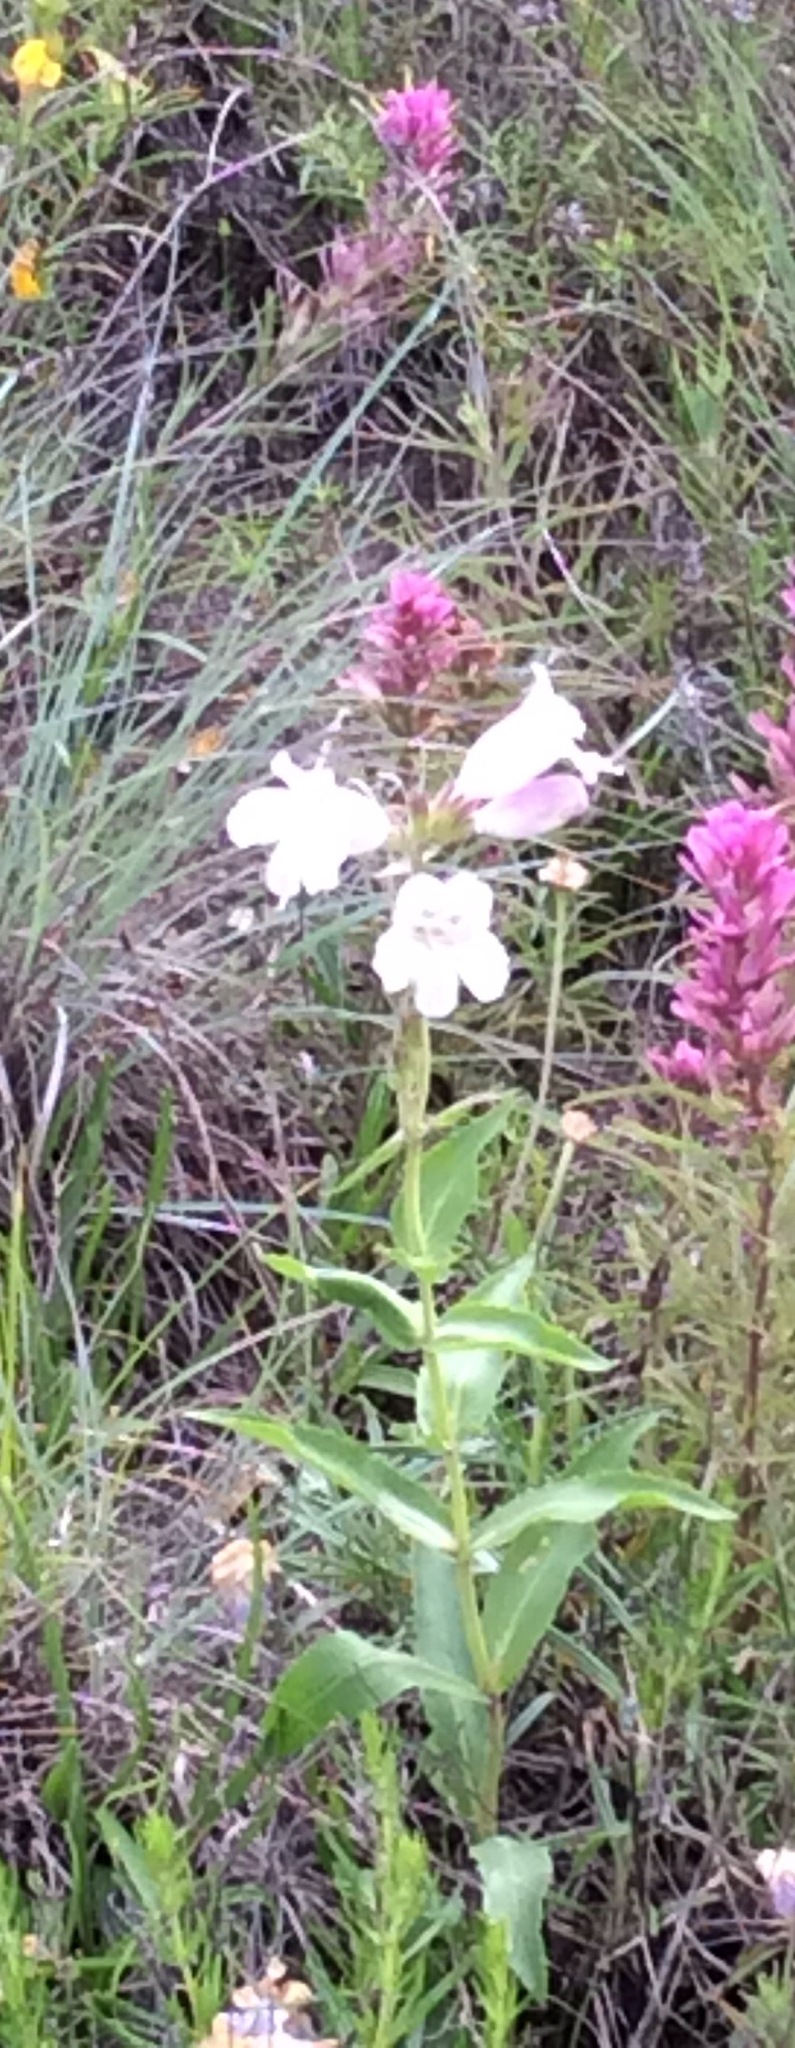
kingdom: Plantae
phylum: Tracheophyta
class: Magnoliopsida
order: Lamiales
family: Plantaginaceae
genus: Penstemon
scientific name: Penstemon cobaea
